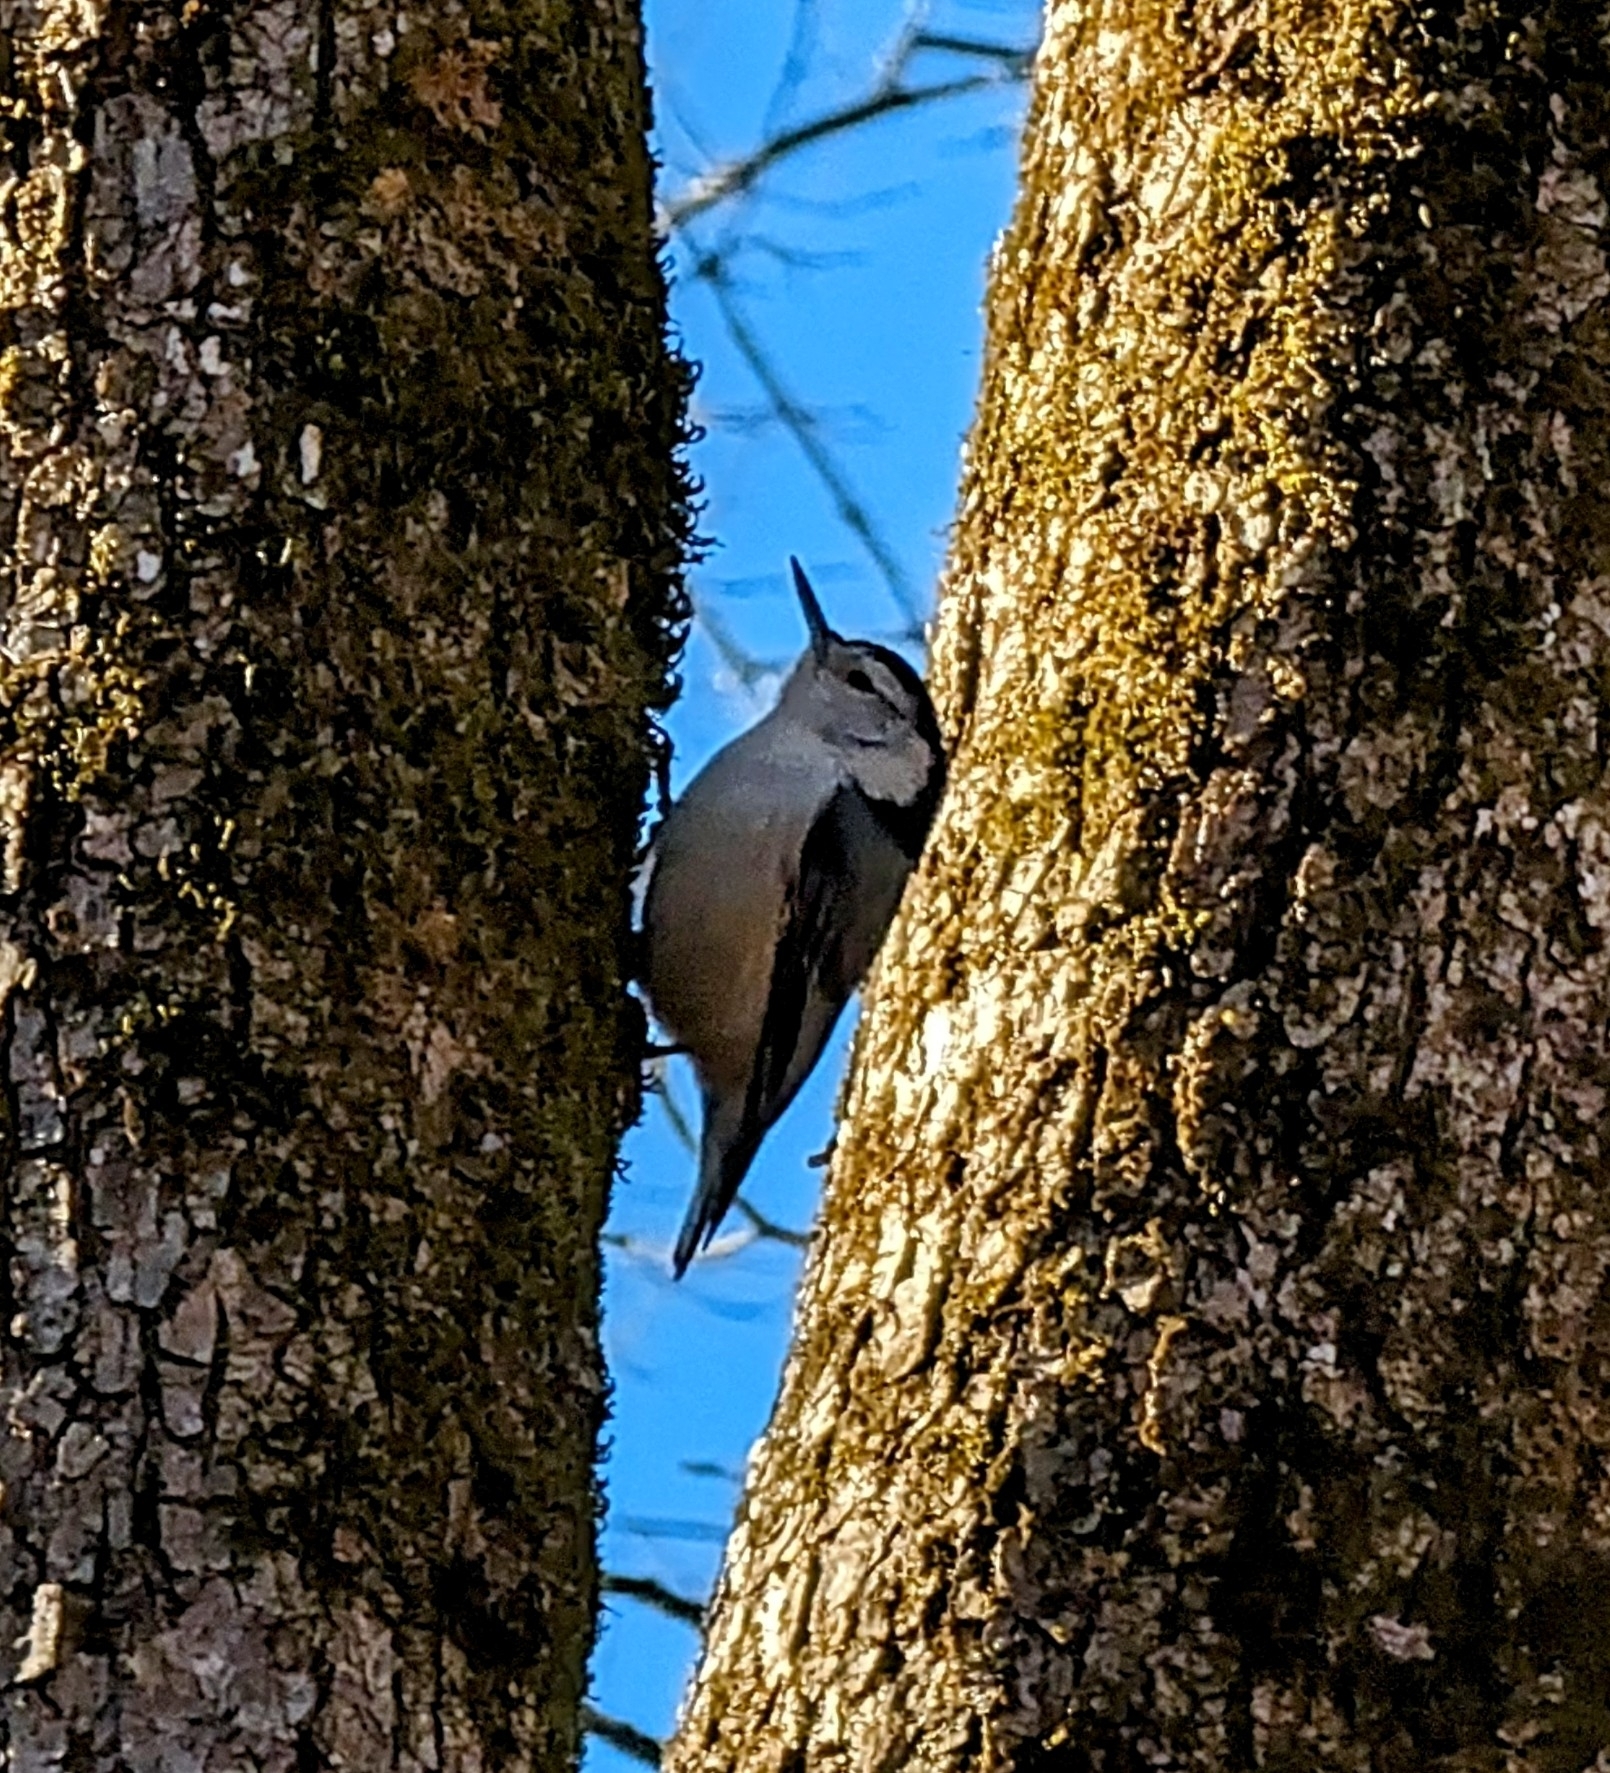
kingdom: Animalia
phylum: Chordata
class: Aves
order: Passeriformes
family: Sittidae
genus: Sitta
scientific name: Sitta carolinensis
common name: White-breasted nuthatch
